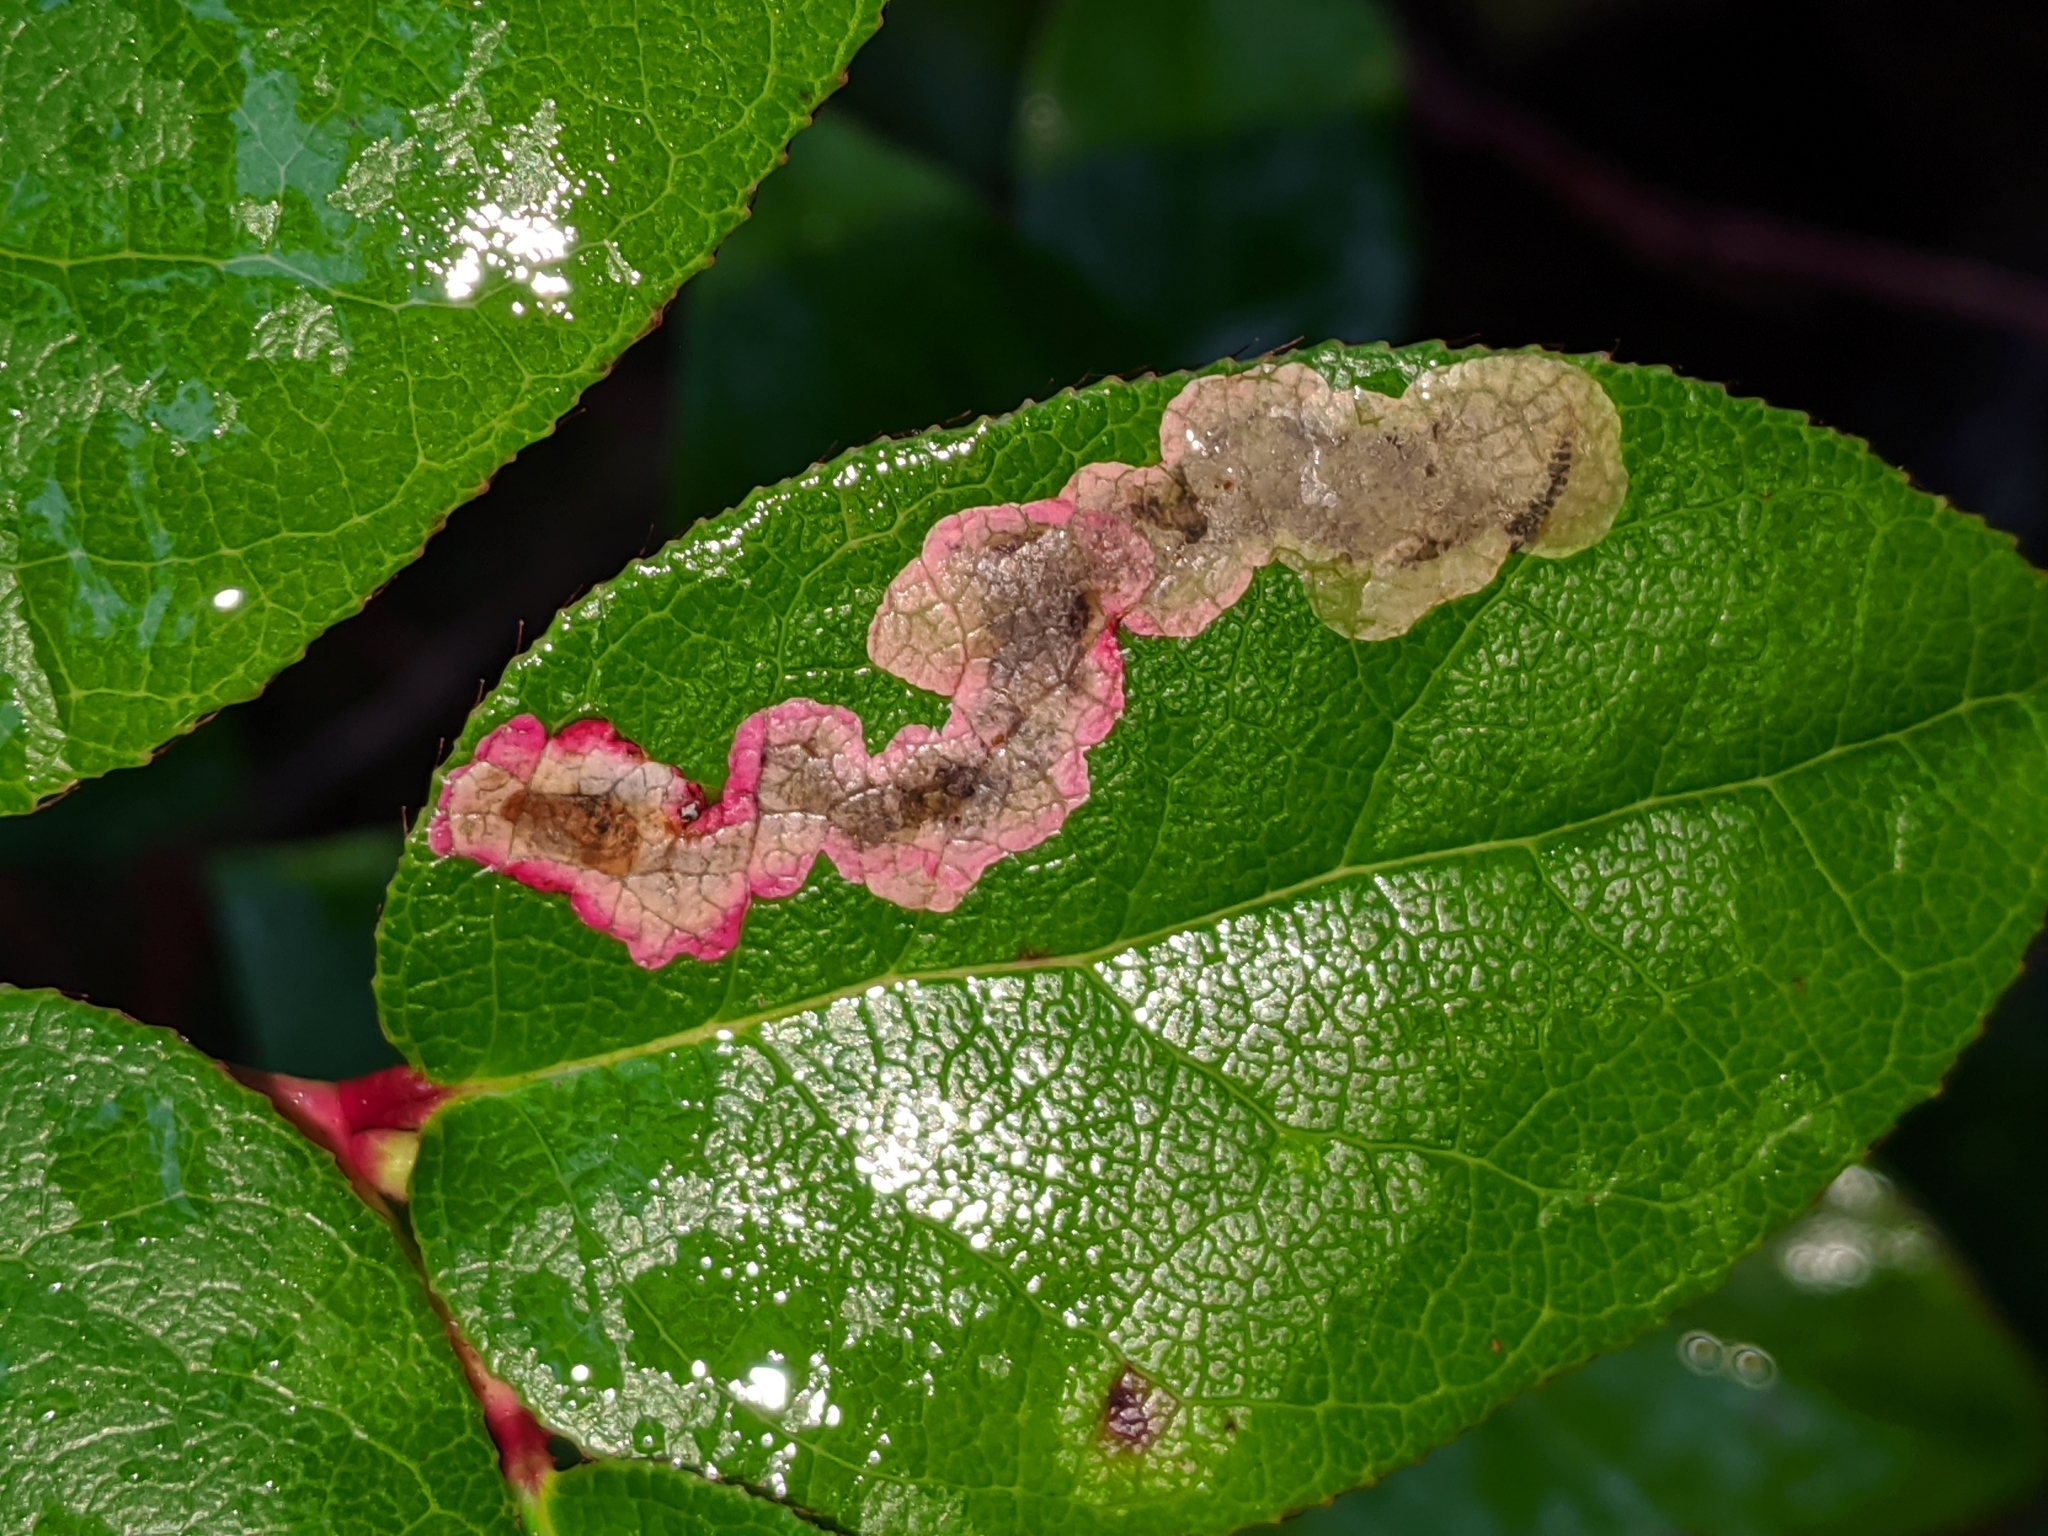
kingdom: Animalia
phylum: Arthropoda
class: Insecta
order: Lepidoptera
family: Gracillariidae
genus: Cameraria
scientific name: Cameraria gaultheriella
